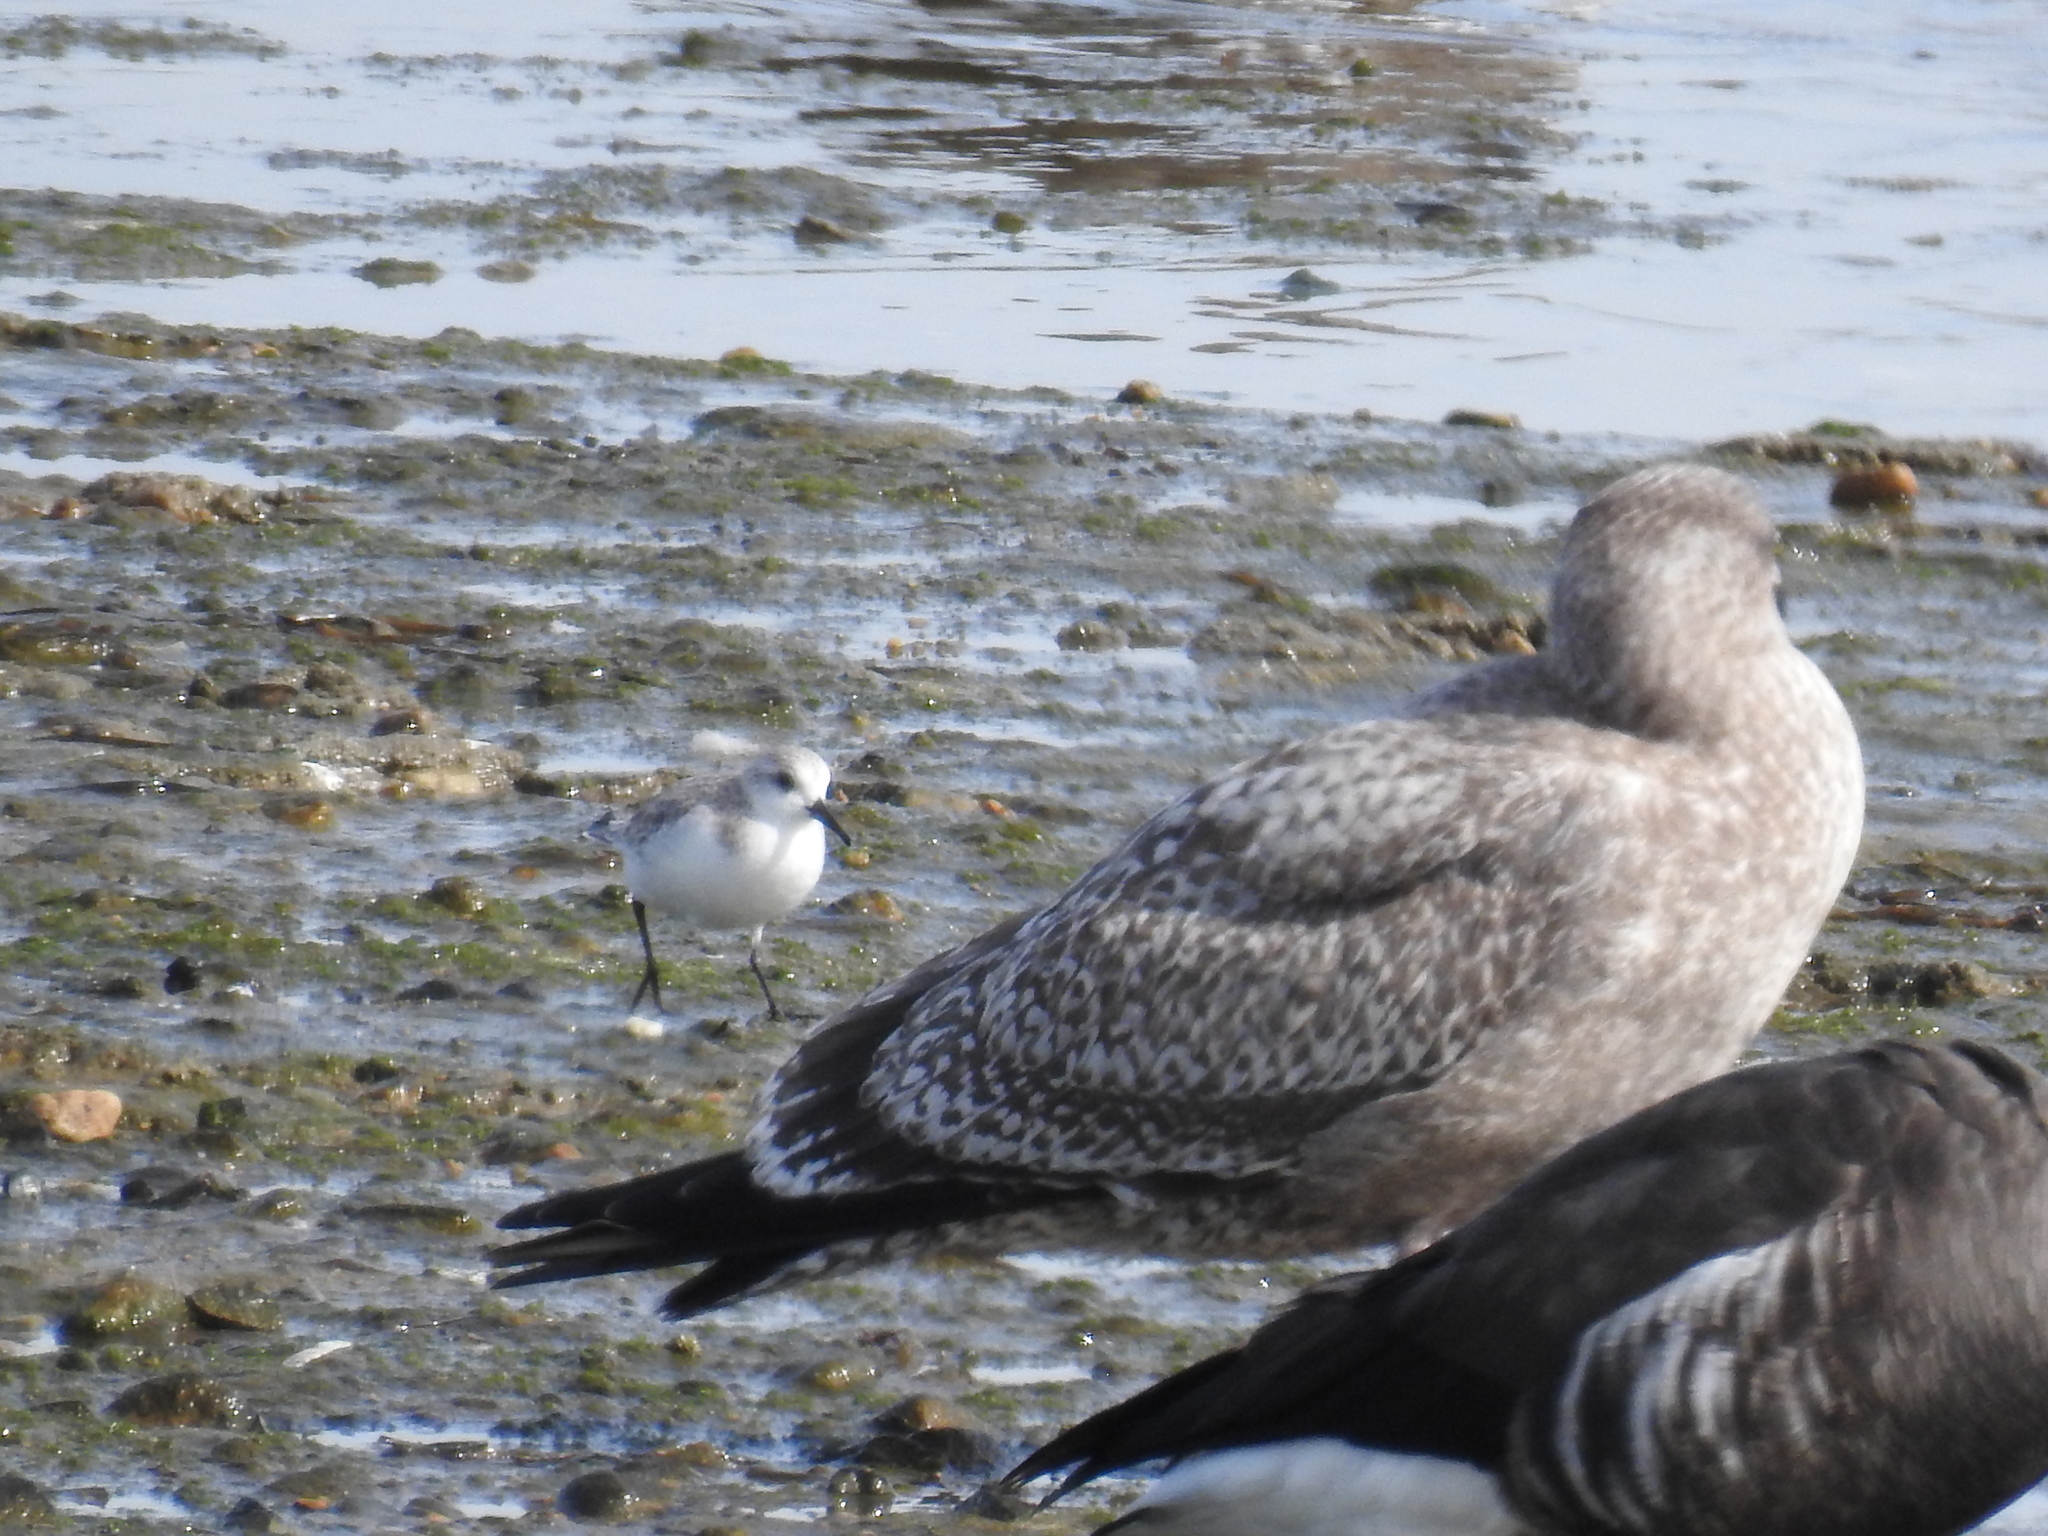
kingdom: Animalia
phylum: Chordata
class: Aves
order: Charadriiformes
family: Scolopacidae
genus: Calidris
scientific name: Calidris alba
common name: Sanderling
